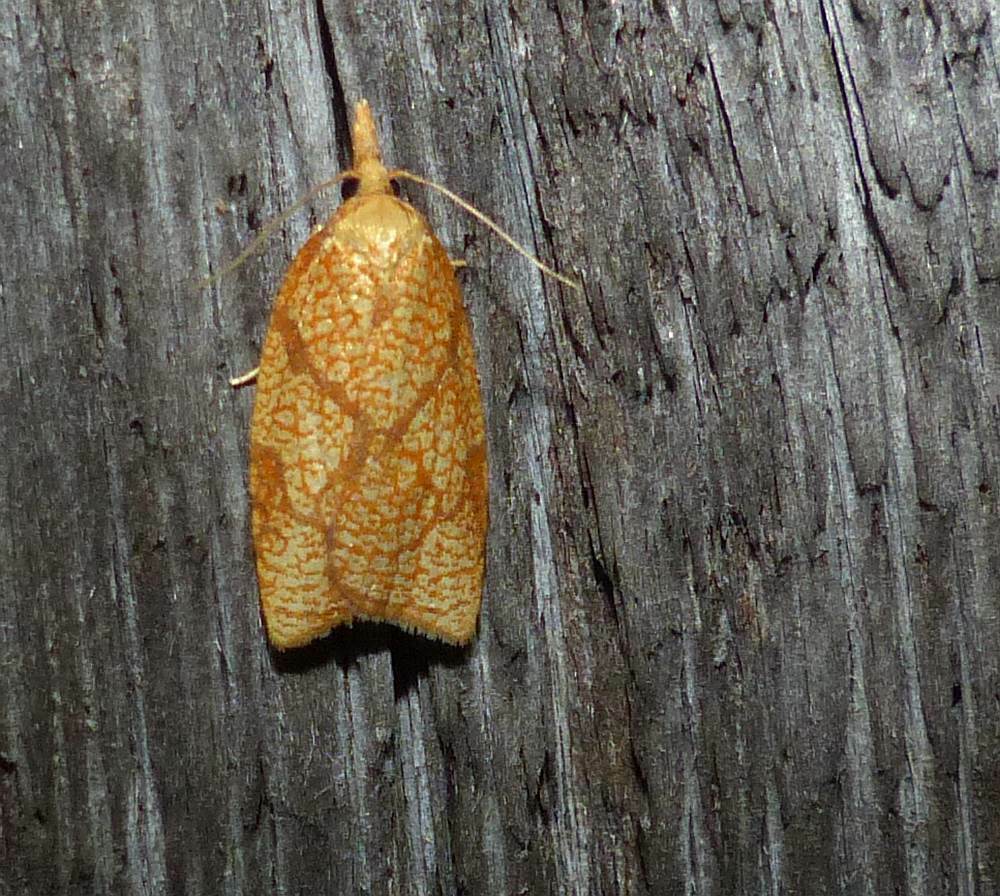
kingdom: Animalia
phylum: Arthropoda
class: Insecta
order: Lepidoptera
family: Tortricidae
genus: Sparganothis
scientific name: Sparganothis sulfureana
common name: Sparganothis fruitworm moth
